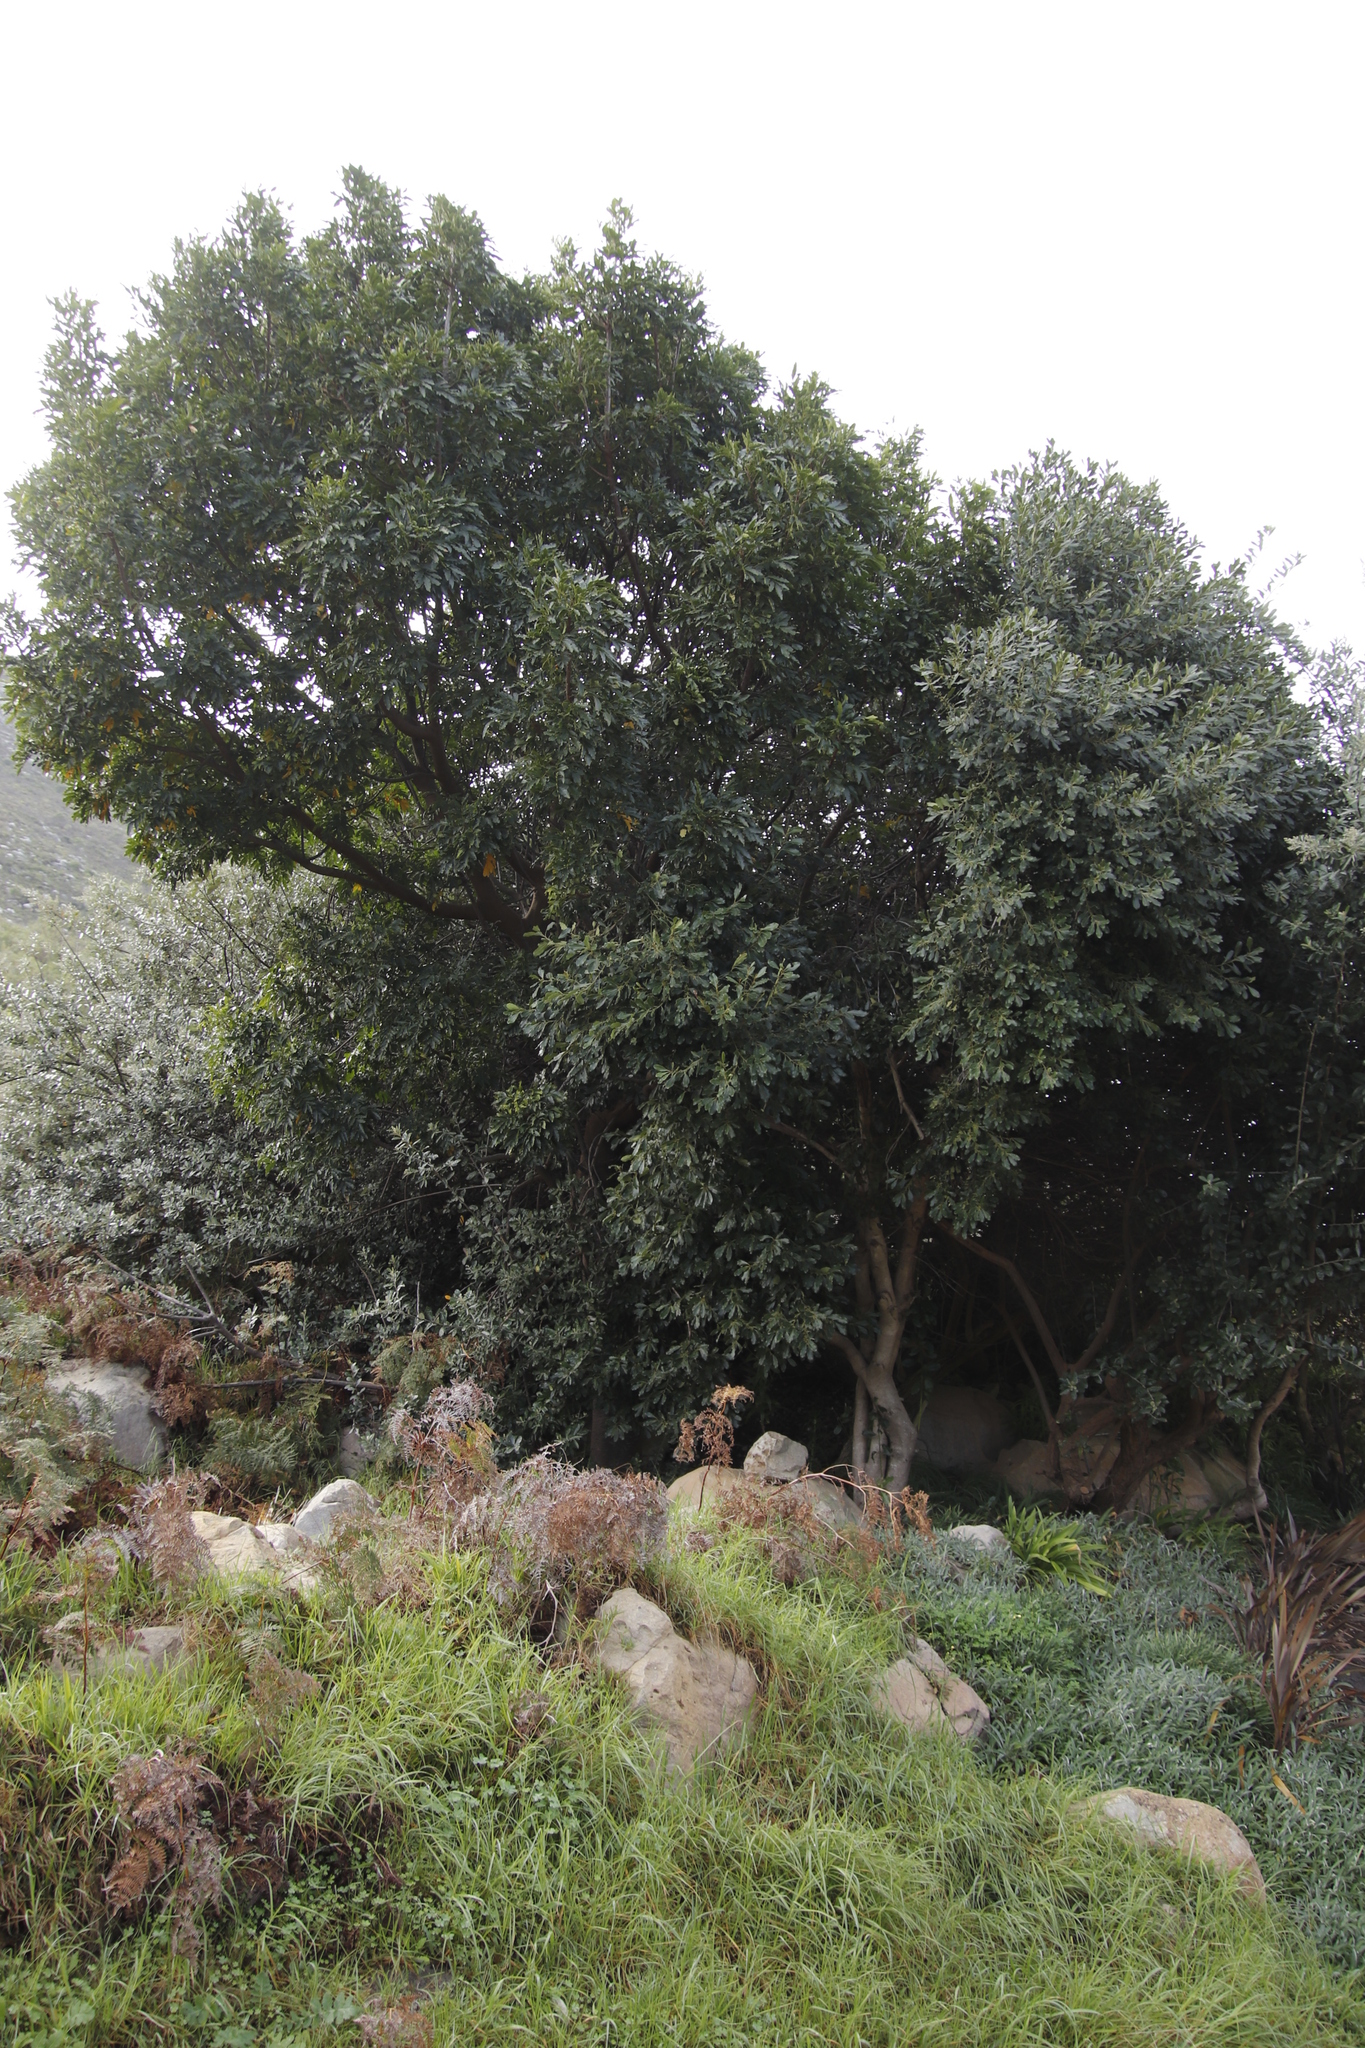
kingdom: Plantae
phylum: Tracheophyta
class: Magnoliopsida
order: Sapindales
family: Meliaceae
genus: Ekebergia
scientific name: Ekebergia capensis
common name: Cape-ash
